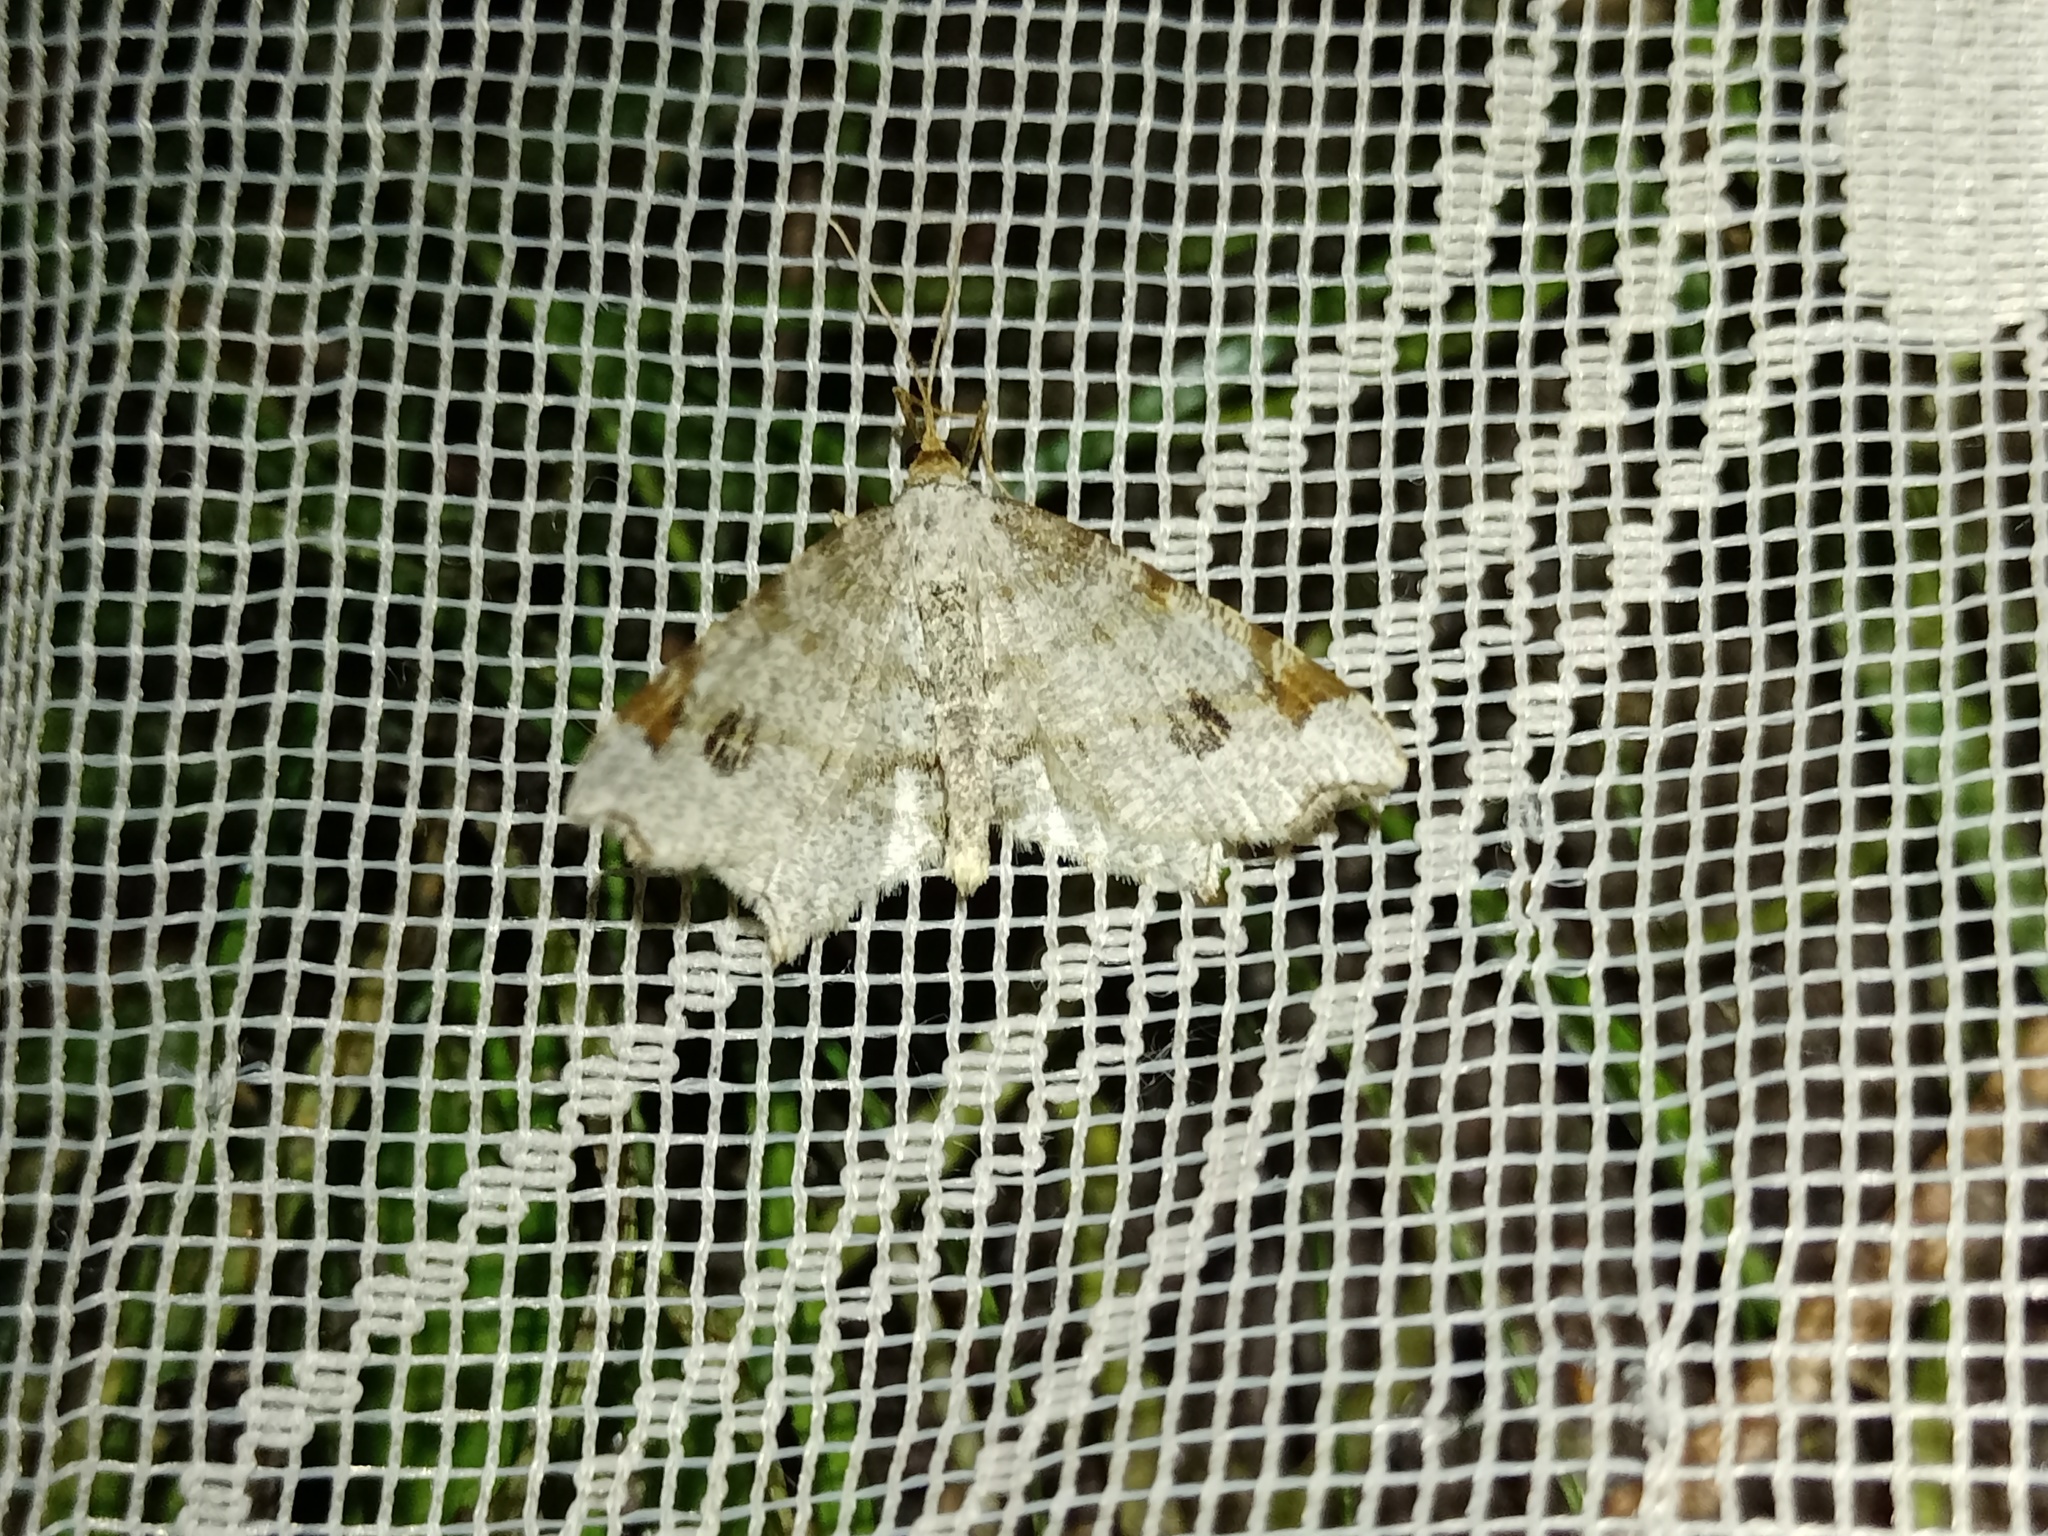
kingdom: Animalia
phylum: Arthropoda
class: Insecta
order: Lepidoptera
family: Geometridae
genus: Macaria
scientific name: Macaria notata
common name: Peacock moth
